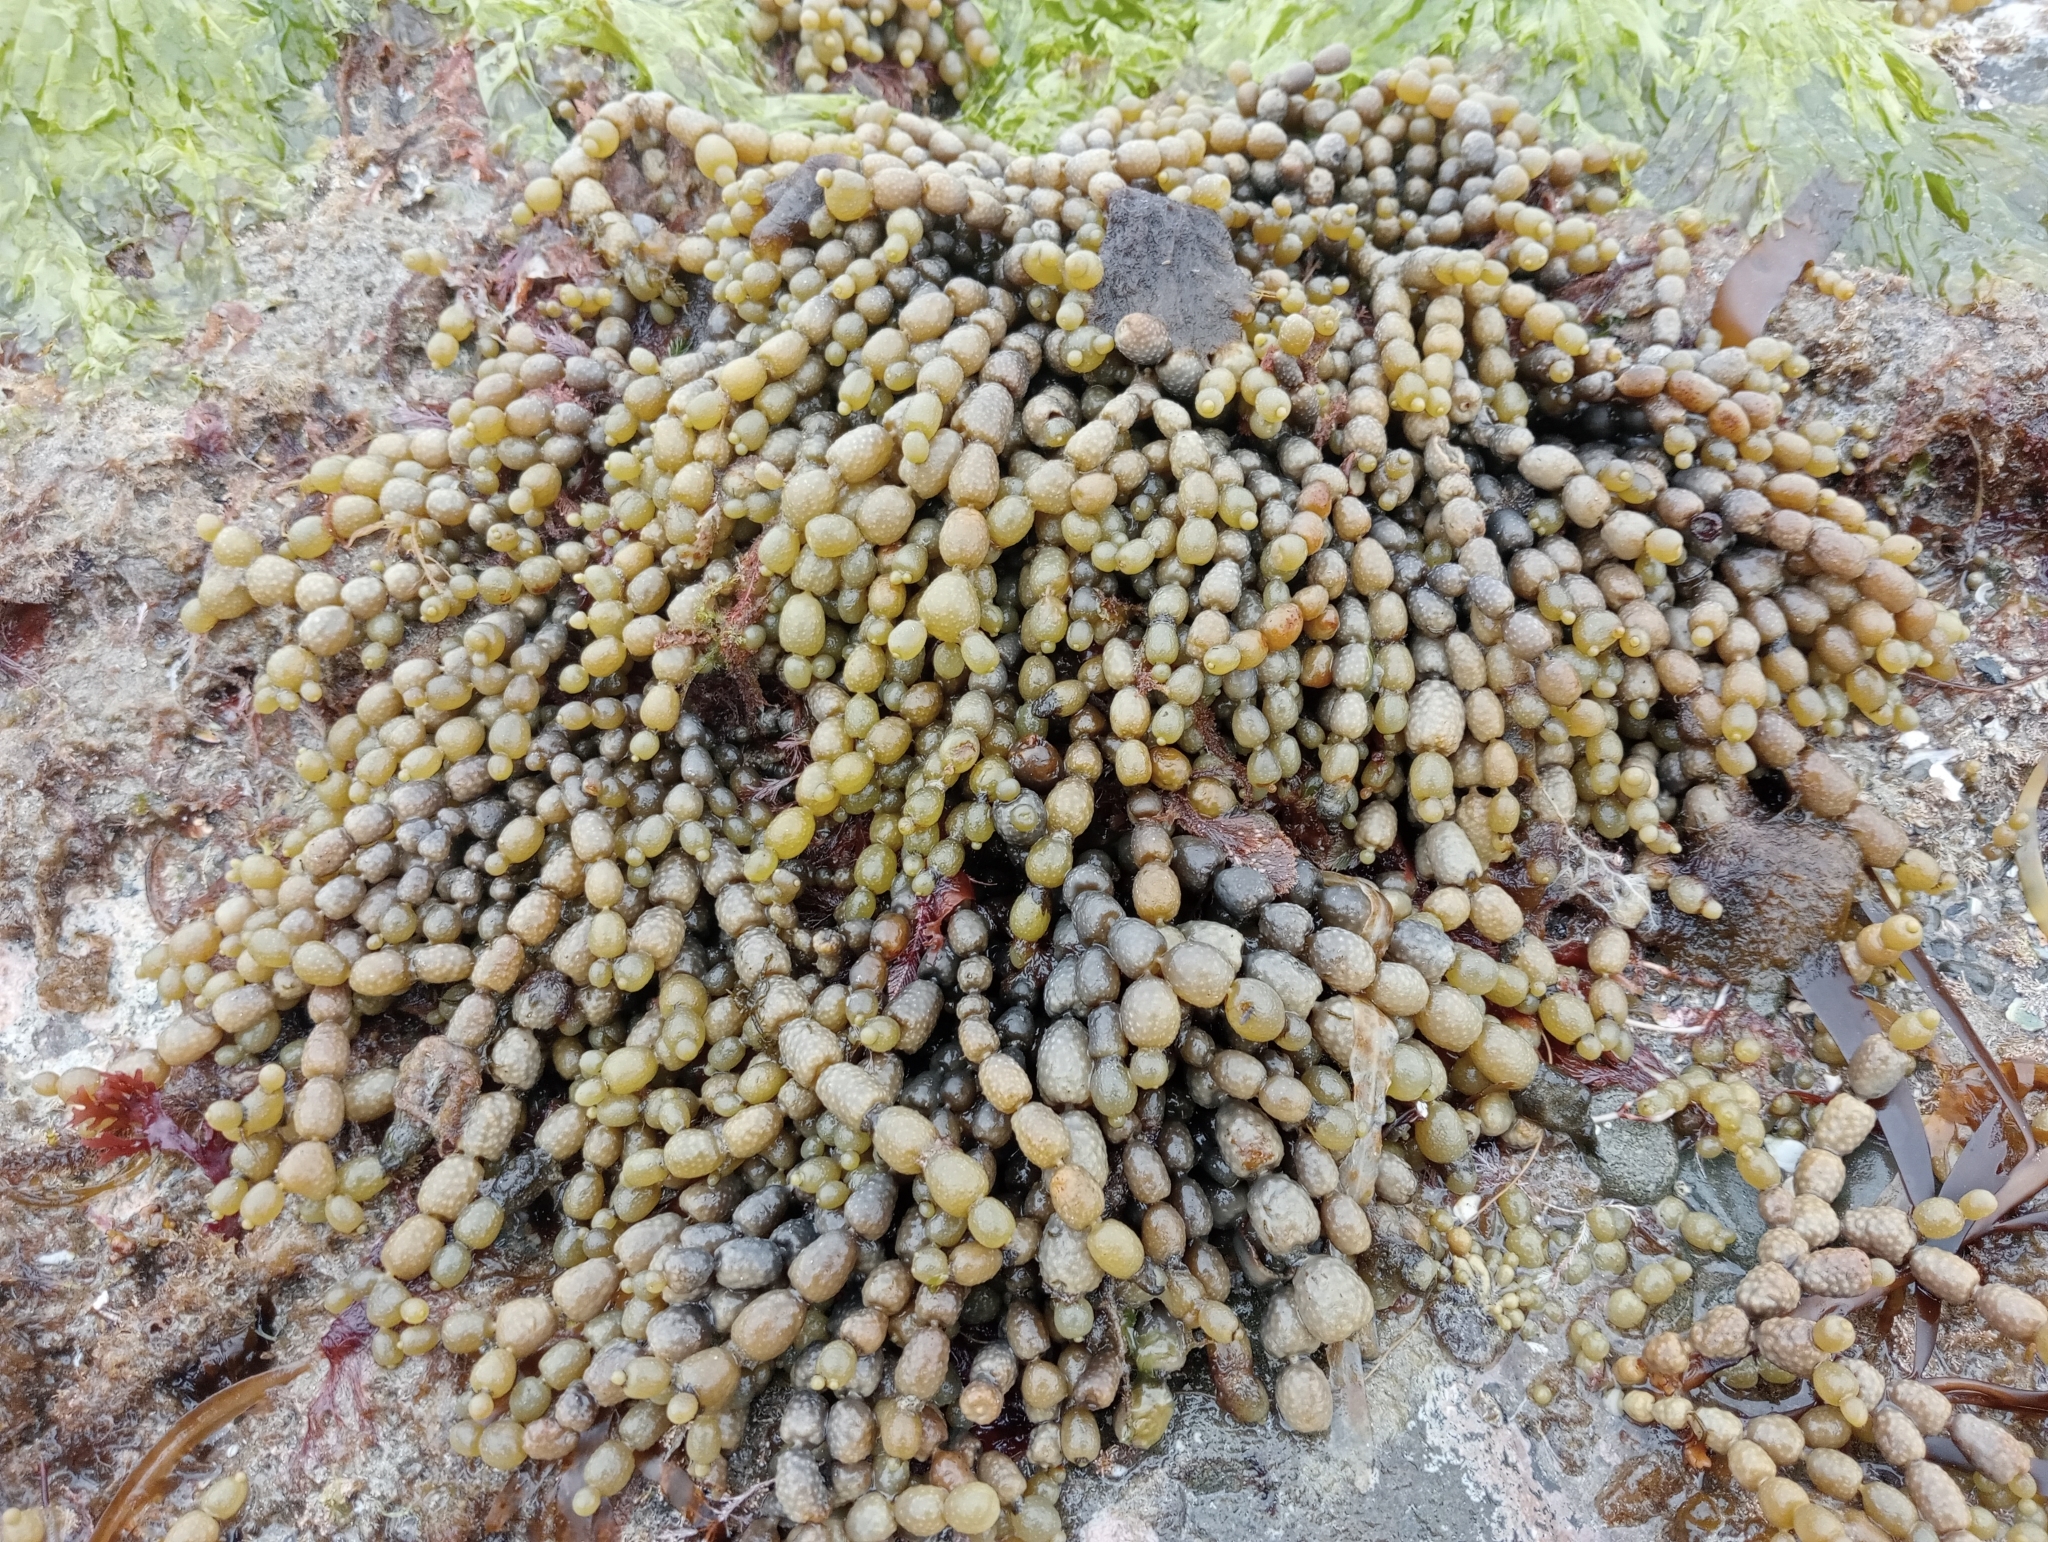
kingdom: Chromista
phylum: Ochrophyta
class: Phaeophyceae
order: Fucales
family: Hormosiraceae
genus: Hormosira
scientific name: Hormosira banksii
